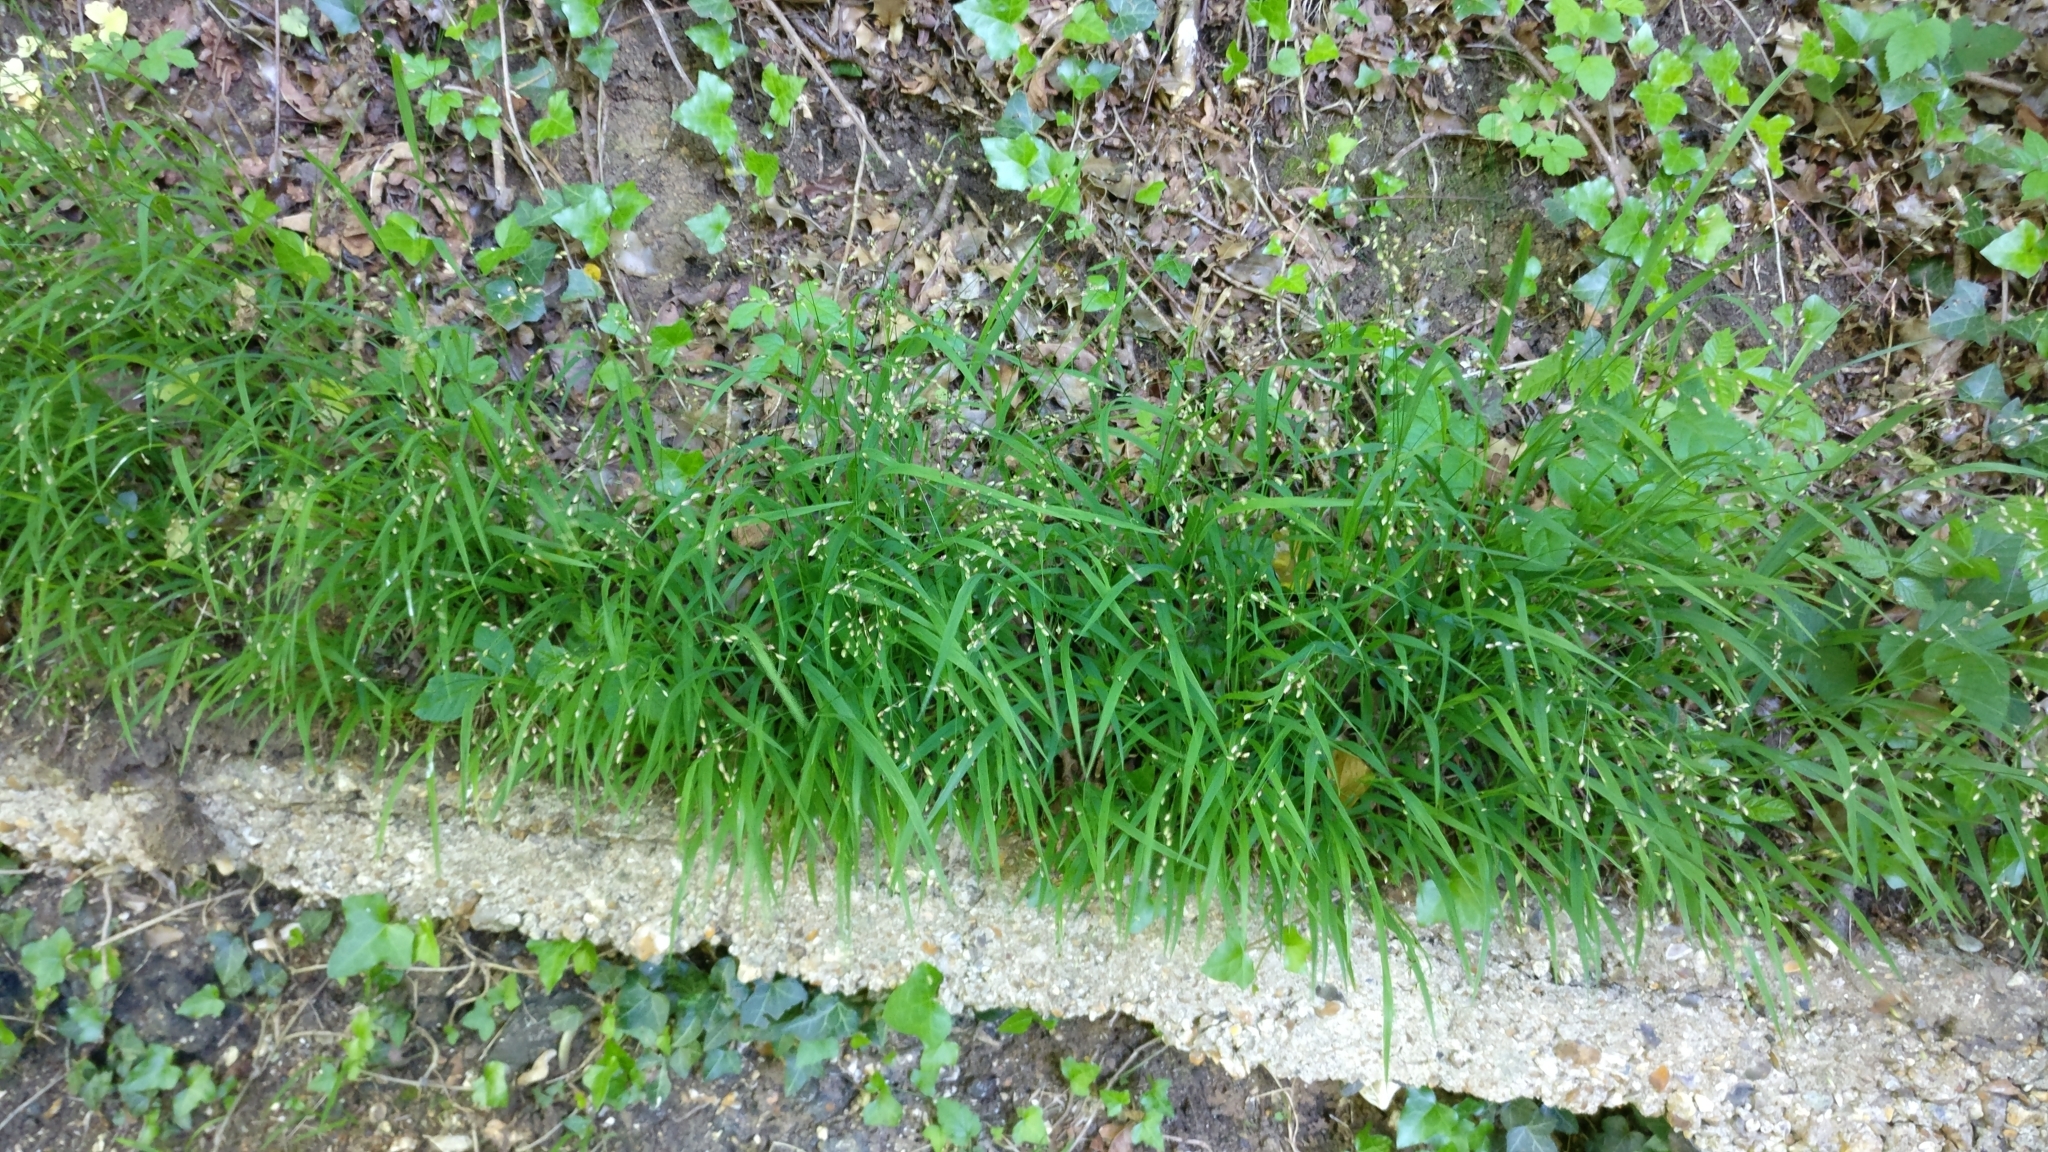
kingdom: Plantae
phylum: Tracheophyta
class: Liliopsida
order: Poales
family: Poaceae
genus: Melica
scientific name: Melica uniflora
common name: Wood melick
